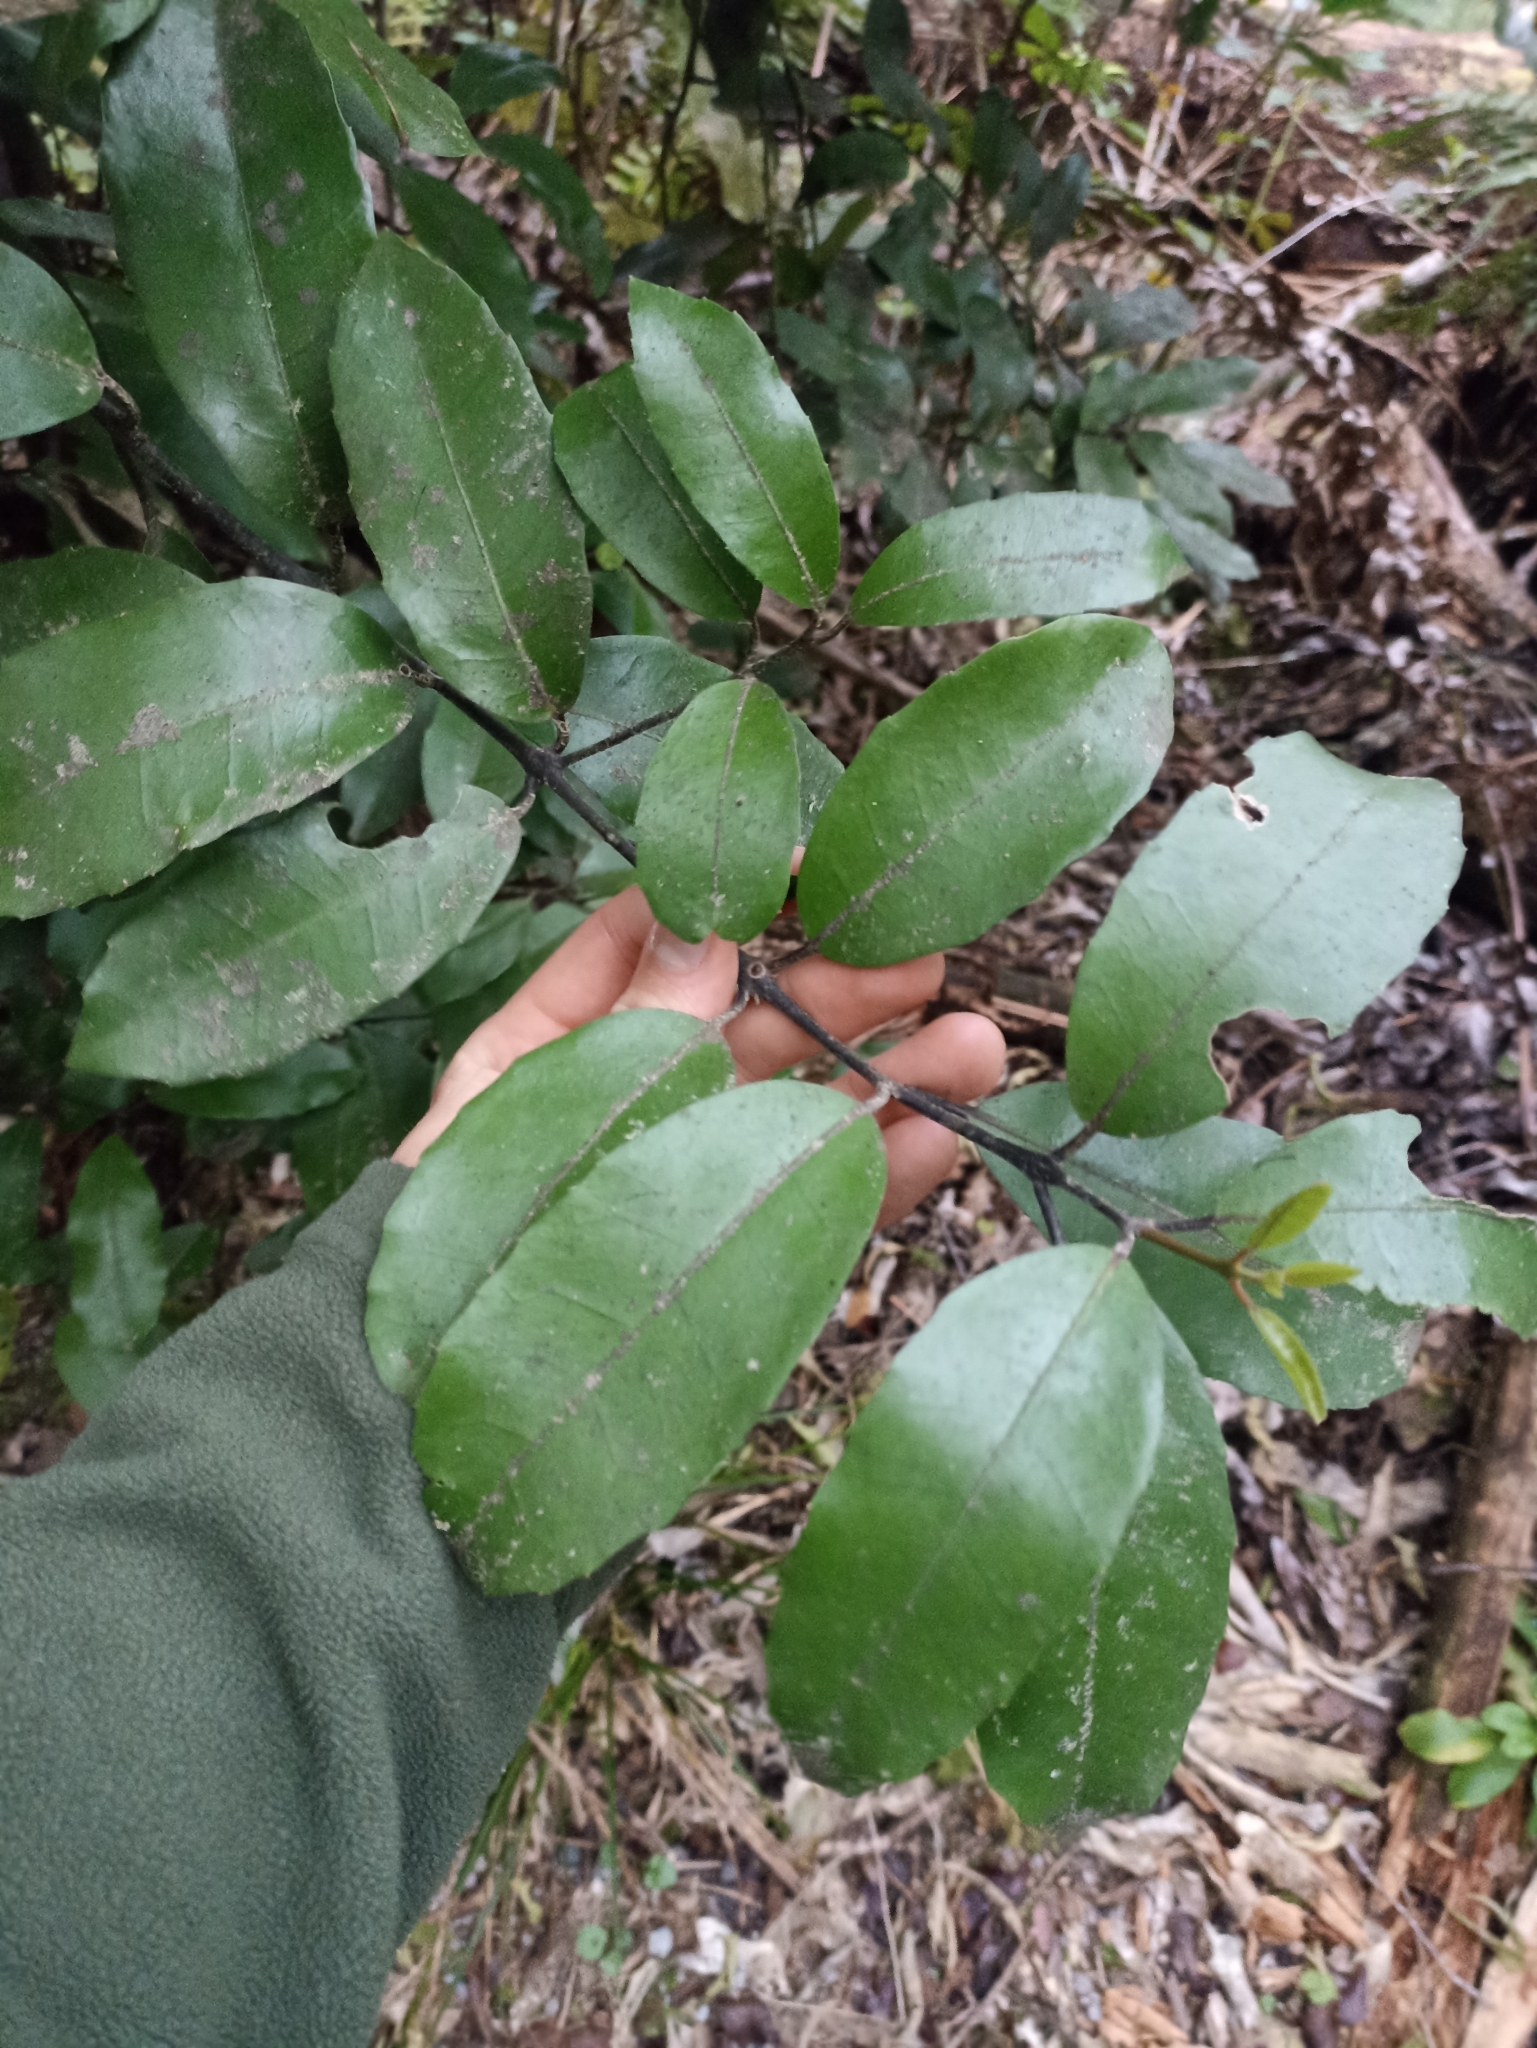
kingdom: Plantae
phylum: Tracheophyta
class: Magnoliopsida
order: Laurales
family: Monimiaceae
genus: Hedycarya
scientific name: Hedycarya arborea
